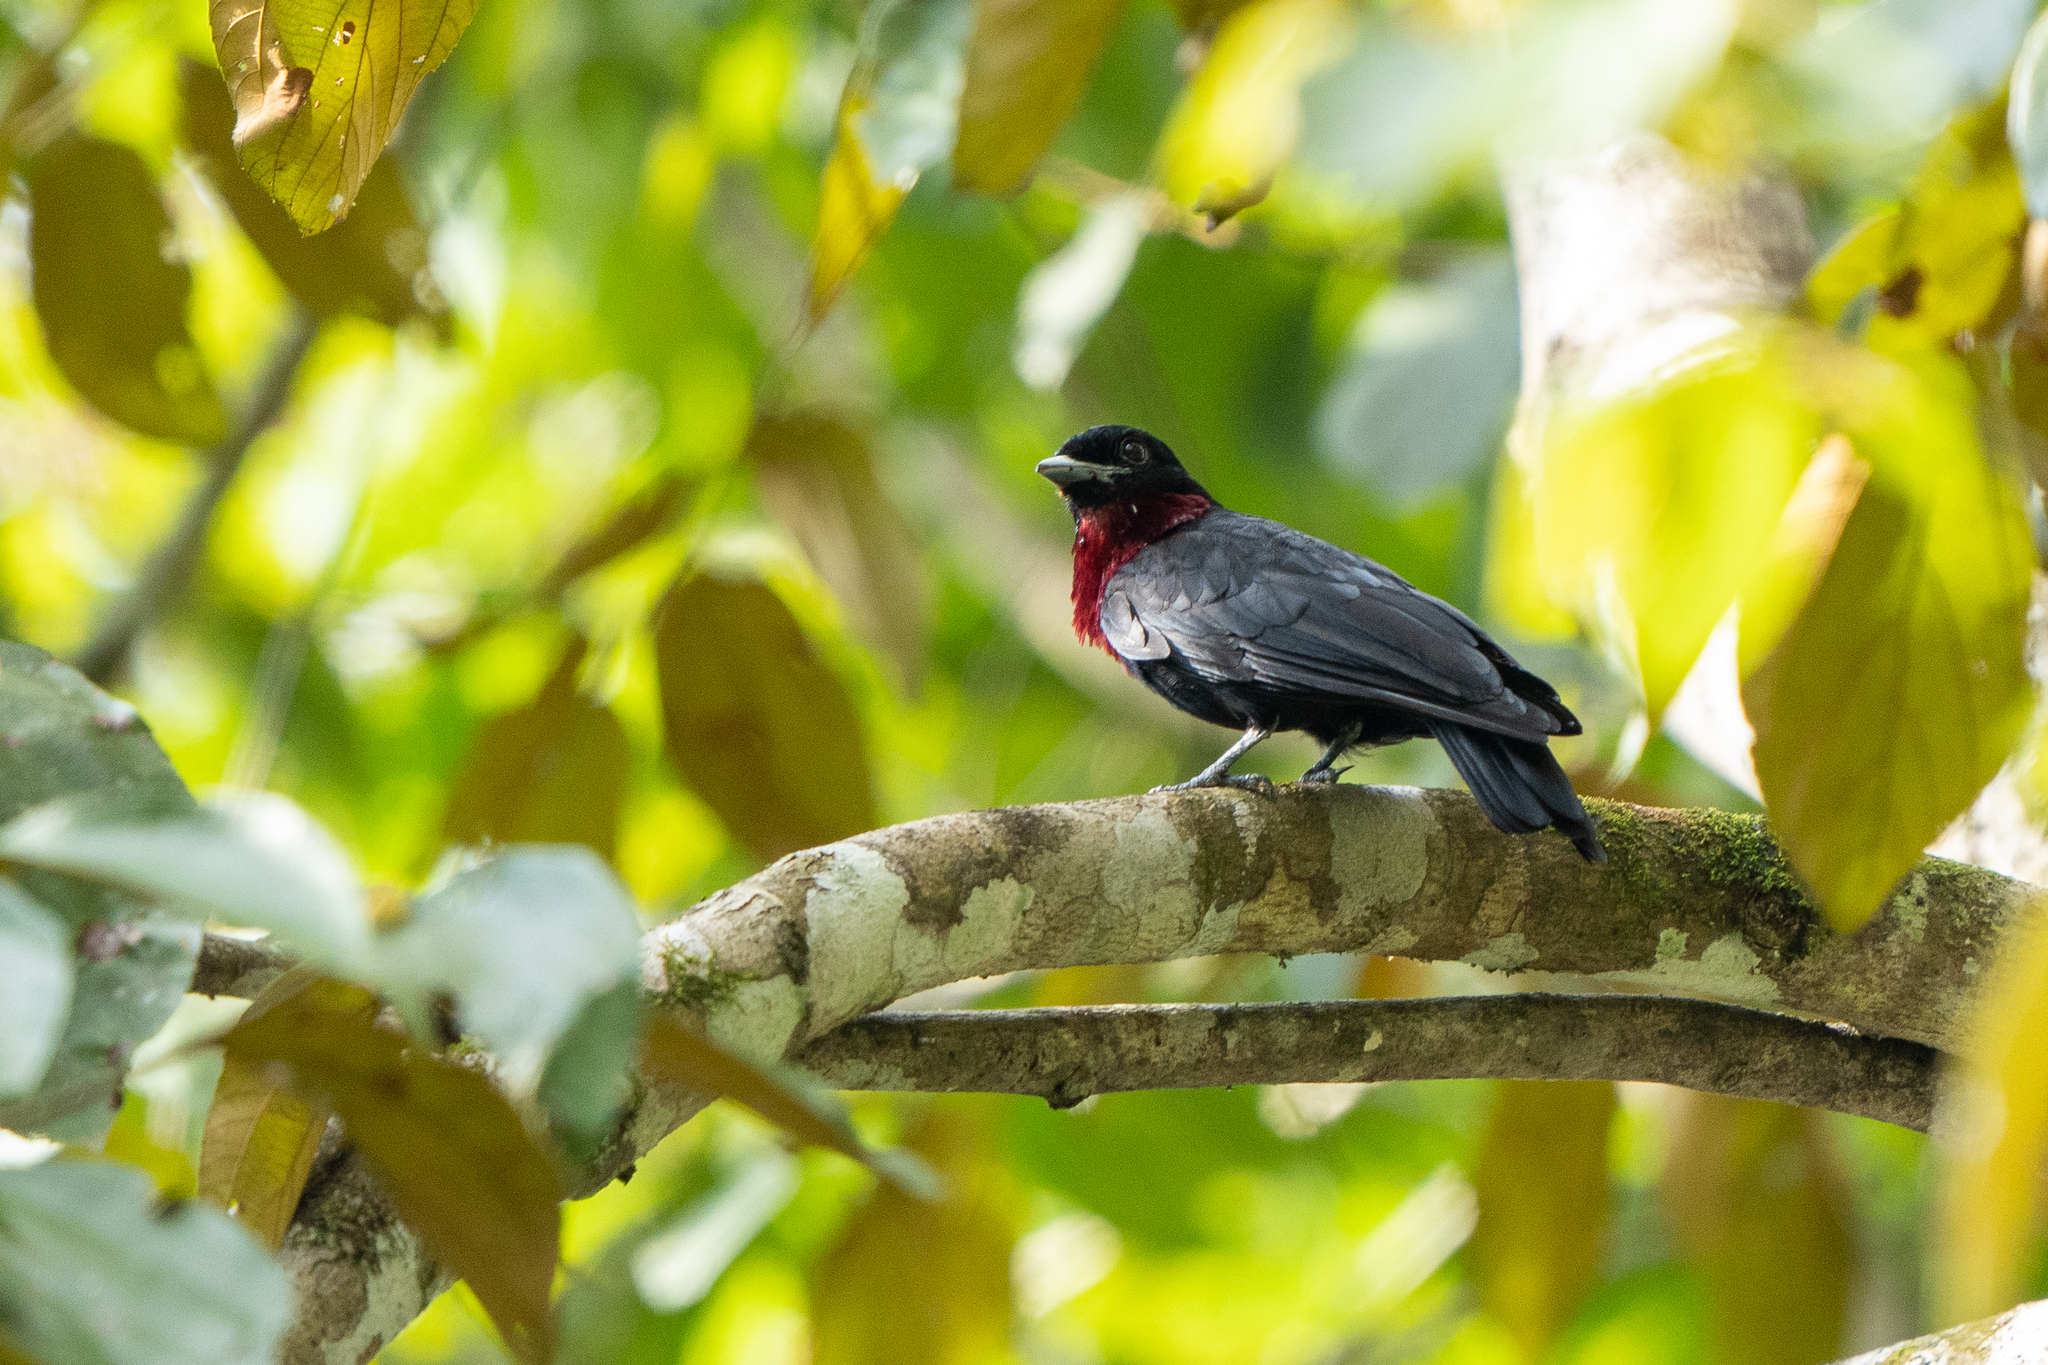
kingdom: Animalia
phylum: Chordata
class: Aves
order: Passeriformes
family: Cotingidae
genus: Querula
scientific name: Querula purpurata
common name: Purple-throated fruitcrow
